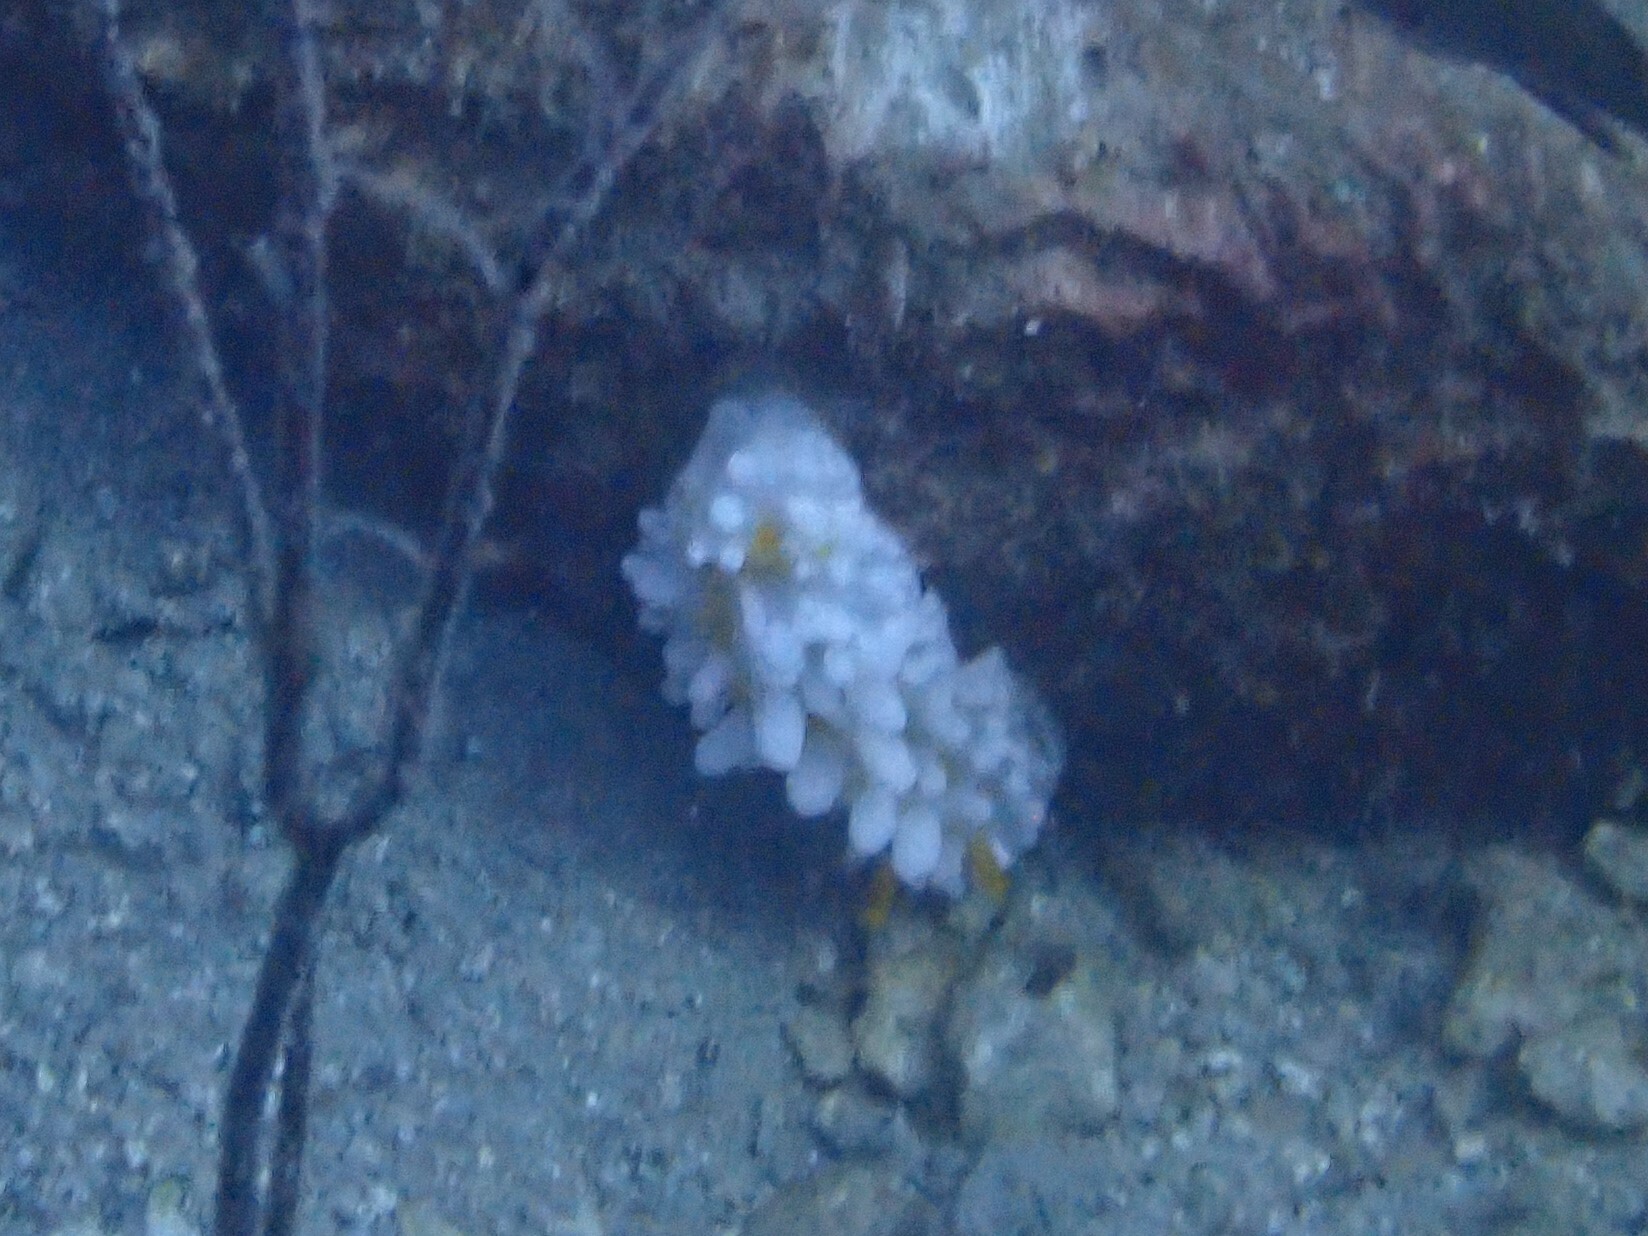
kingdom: Animalia
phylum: Mollusca
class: Gastropoda
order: Nudibranchia
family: Phyllidiidae
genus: Phyllidia
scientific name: Phyllidia ocellata
